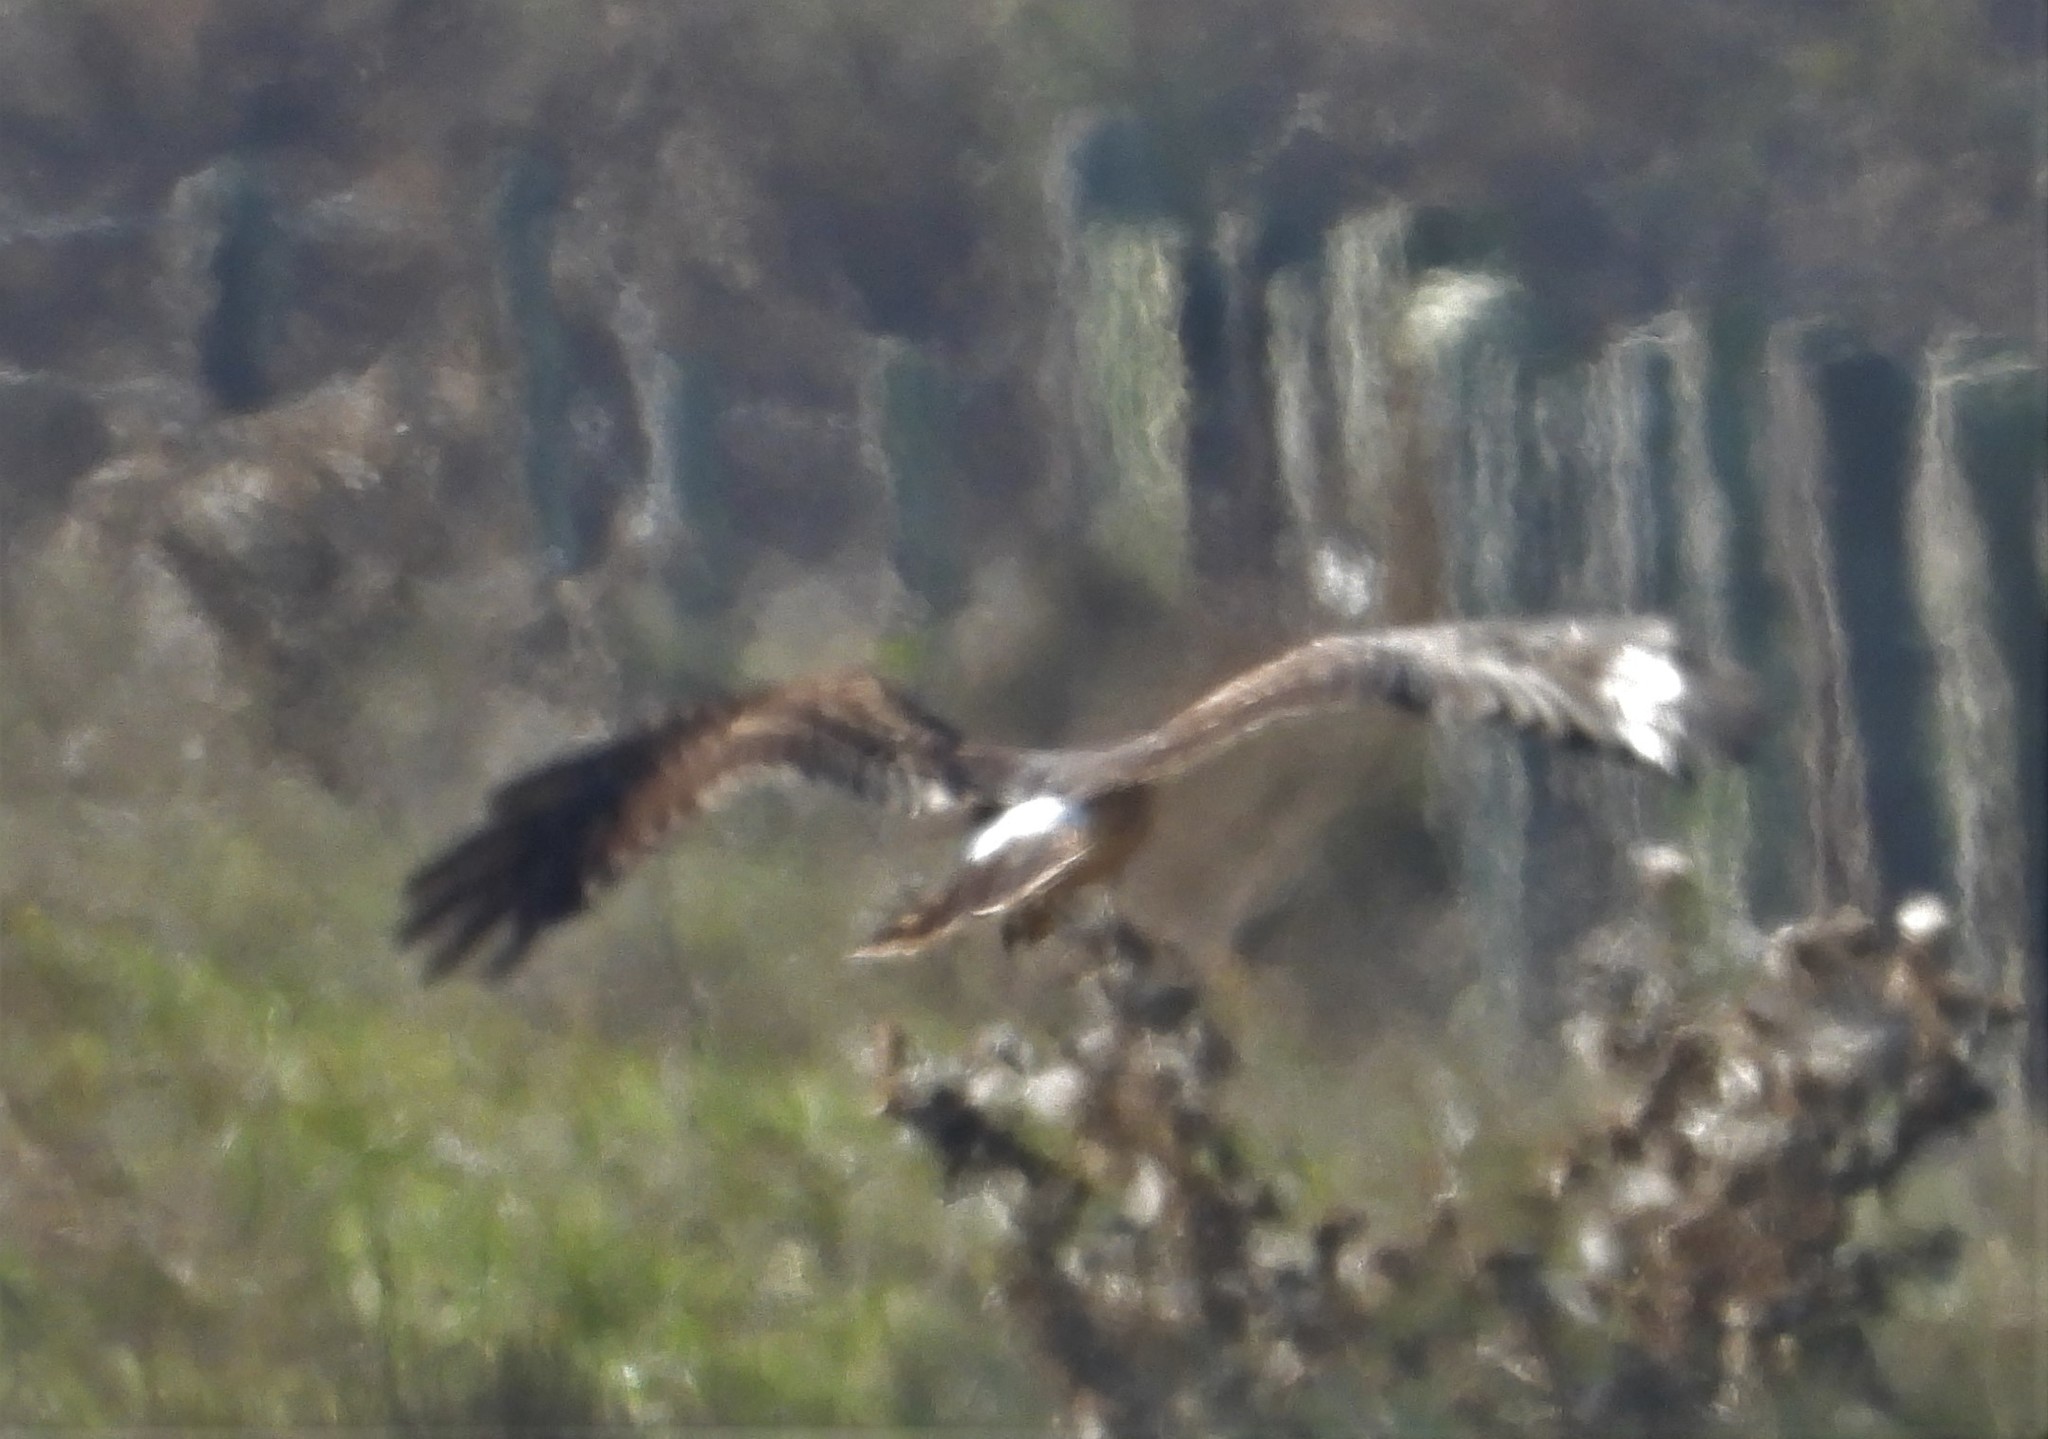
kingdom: Animalia
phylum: Chordata
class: Aves
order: Accipitriformes
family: Accipitridae
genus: Circus
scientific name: Circus cyaneus
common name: Hen harrier
